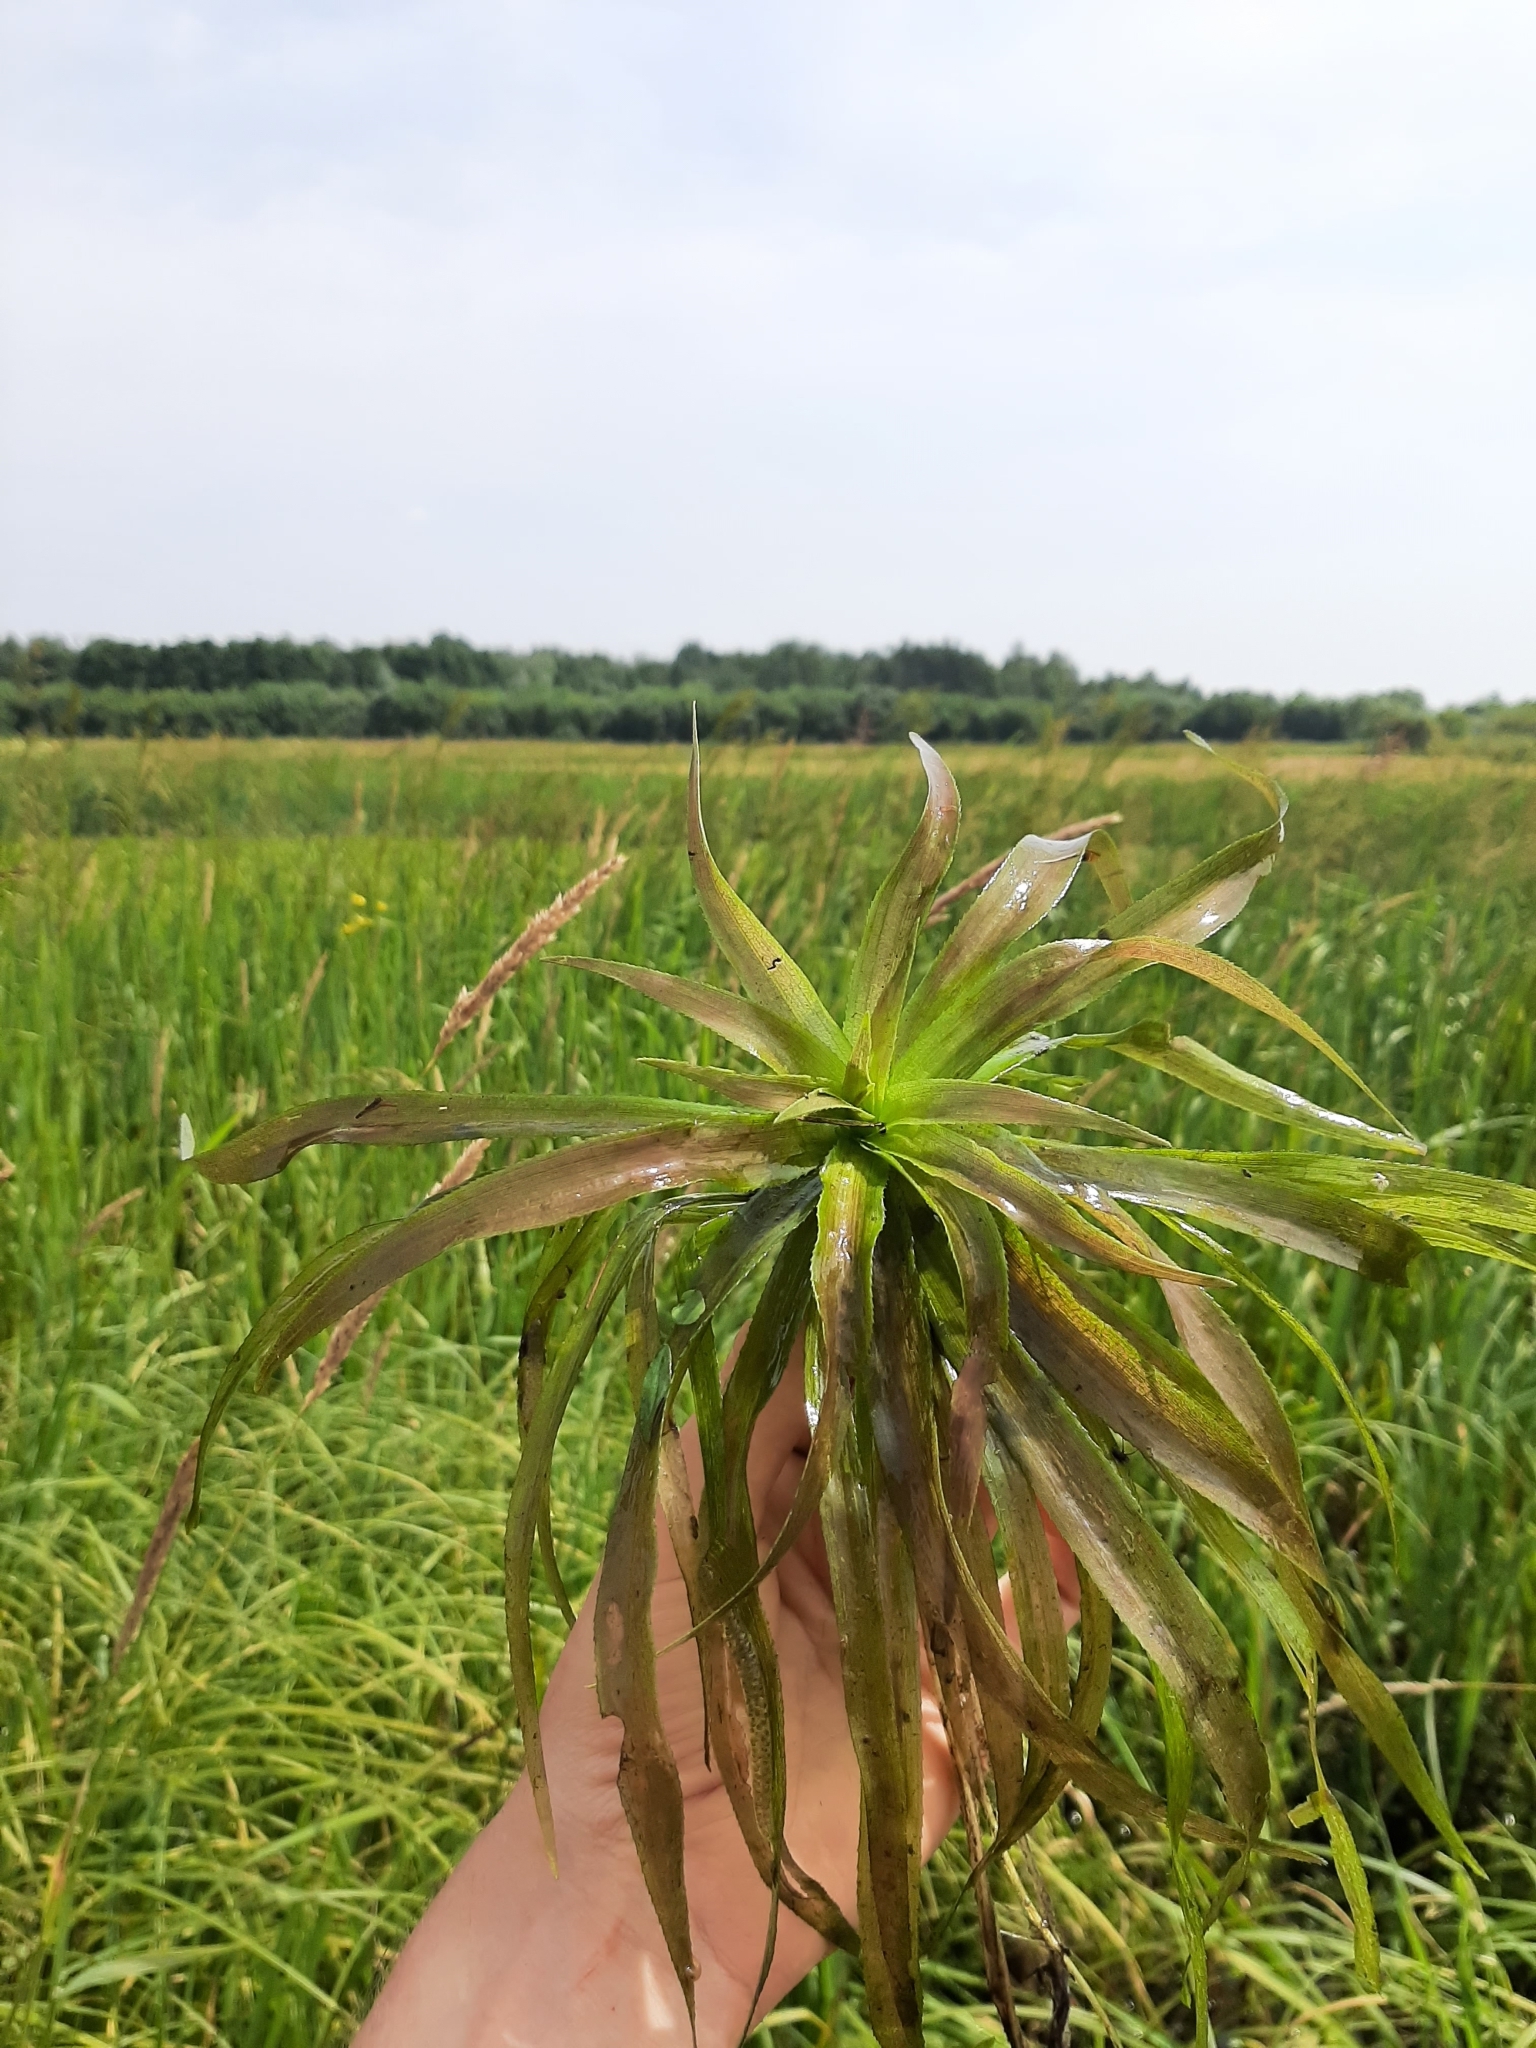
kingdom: Plantae
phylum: Tracheophyta
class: Liliopsida
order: Alismatales
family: Hydrocharitaceae
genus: Stratiotes
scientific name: Stratiotes aloides
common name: Water-soldier
